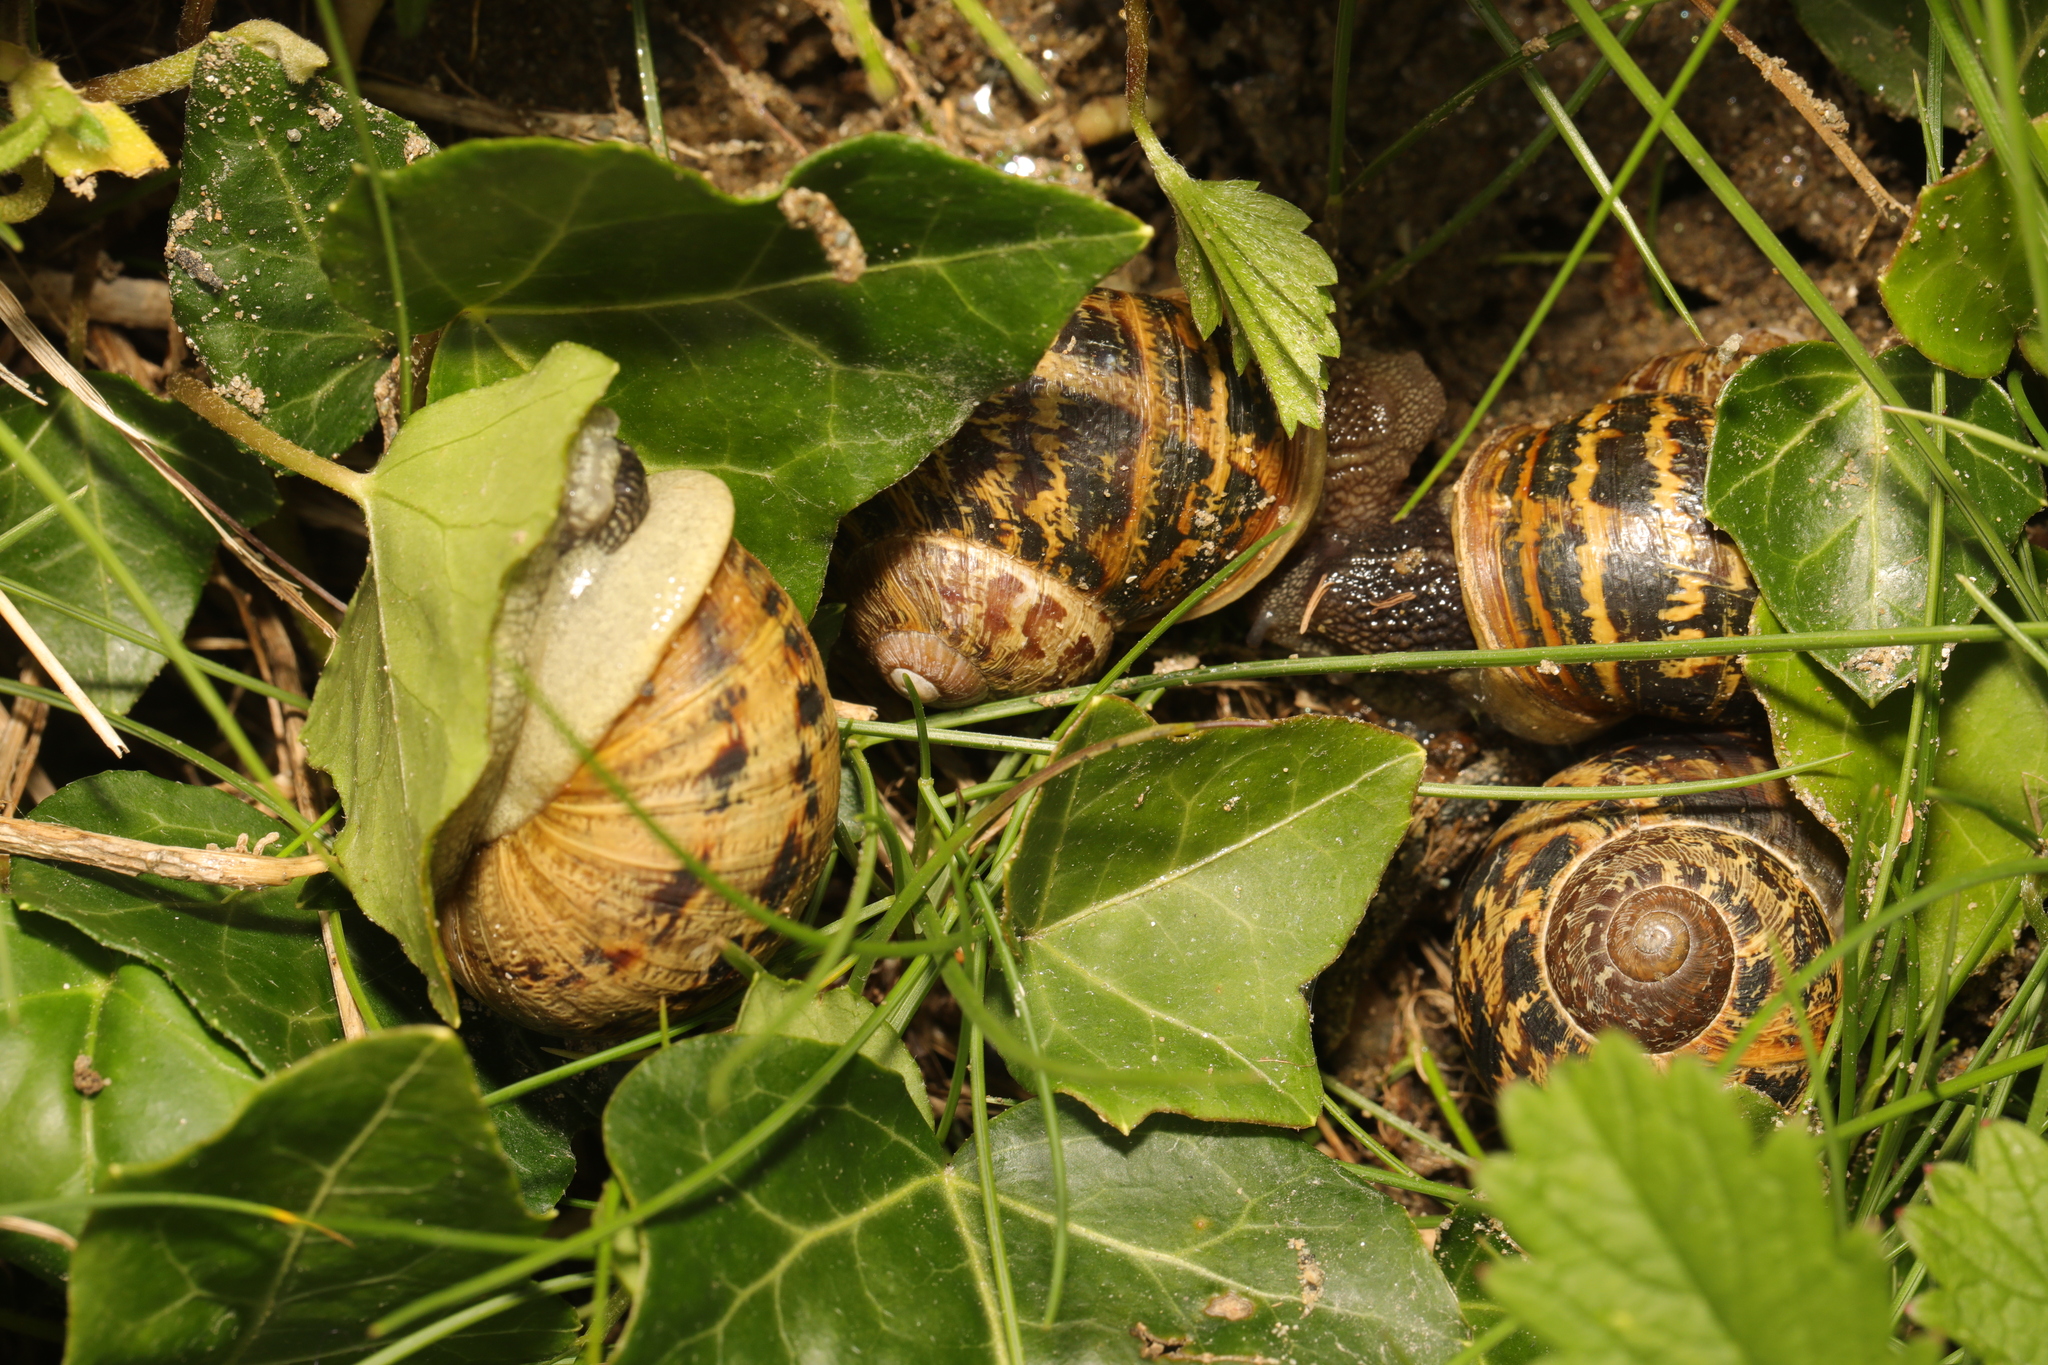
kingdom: Animalia
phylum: Mollusca
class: Gastropoda
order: Stylommatophora
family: Helicidae
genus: Cornu
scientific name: Cornu aspersum
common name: Brown garden snail
